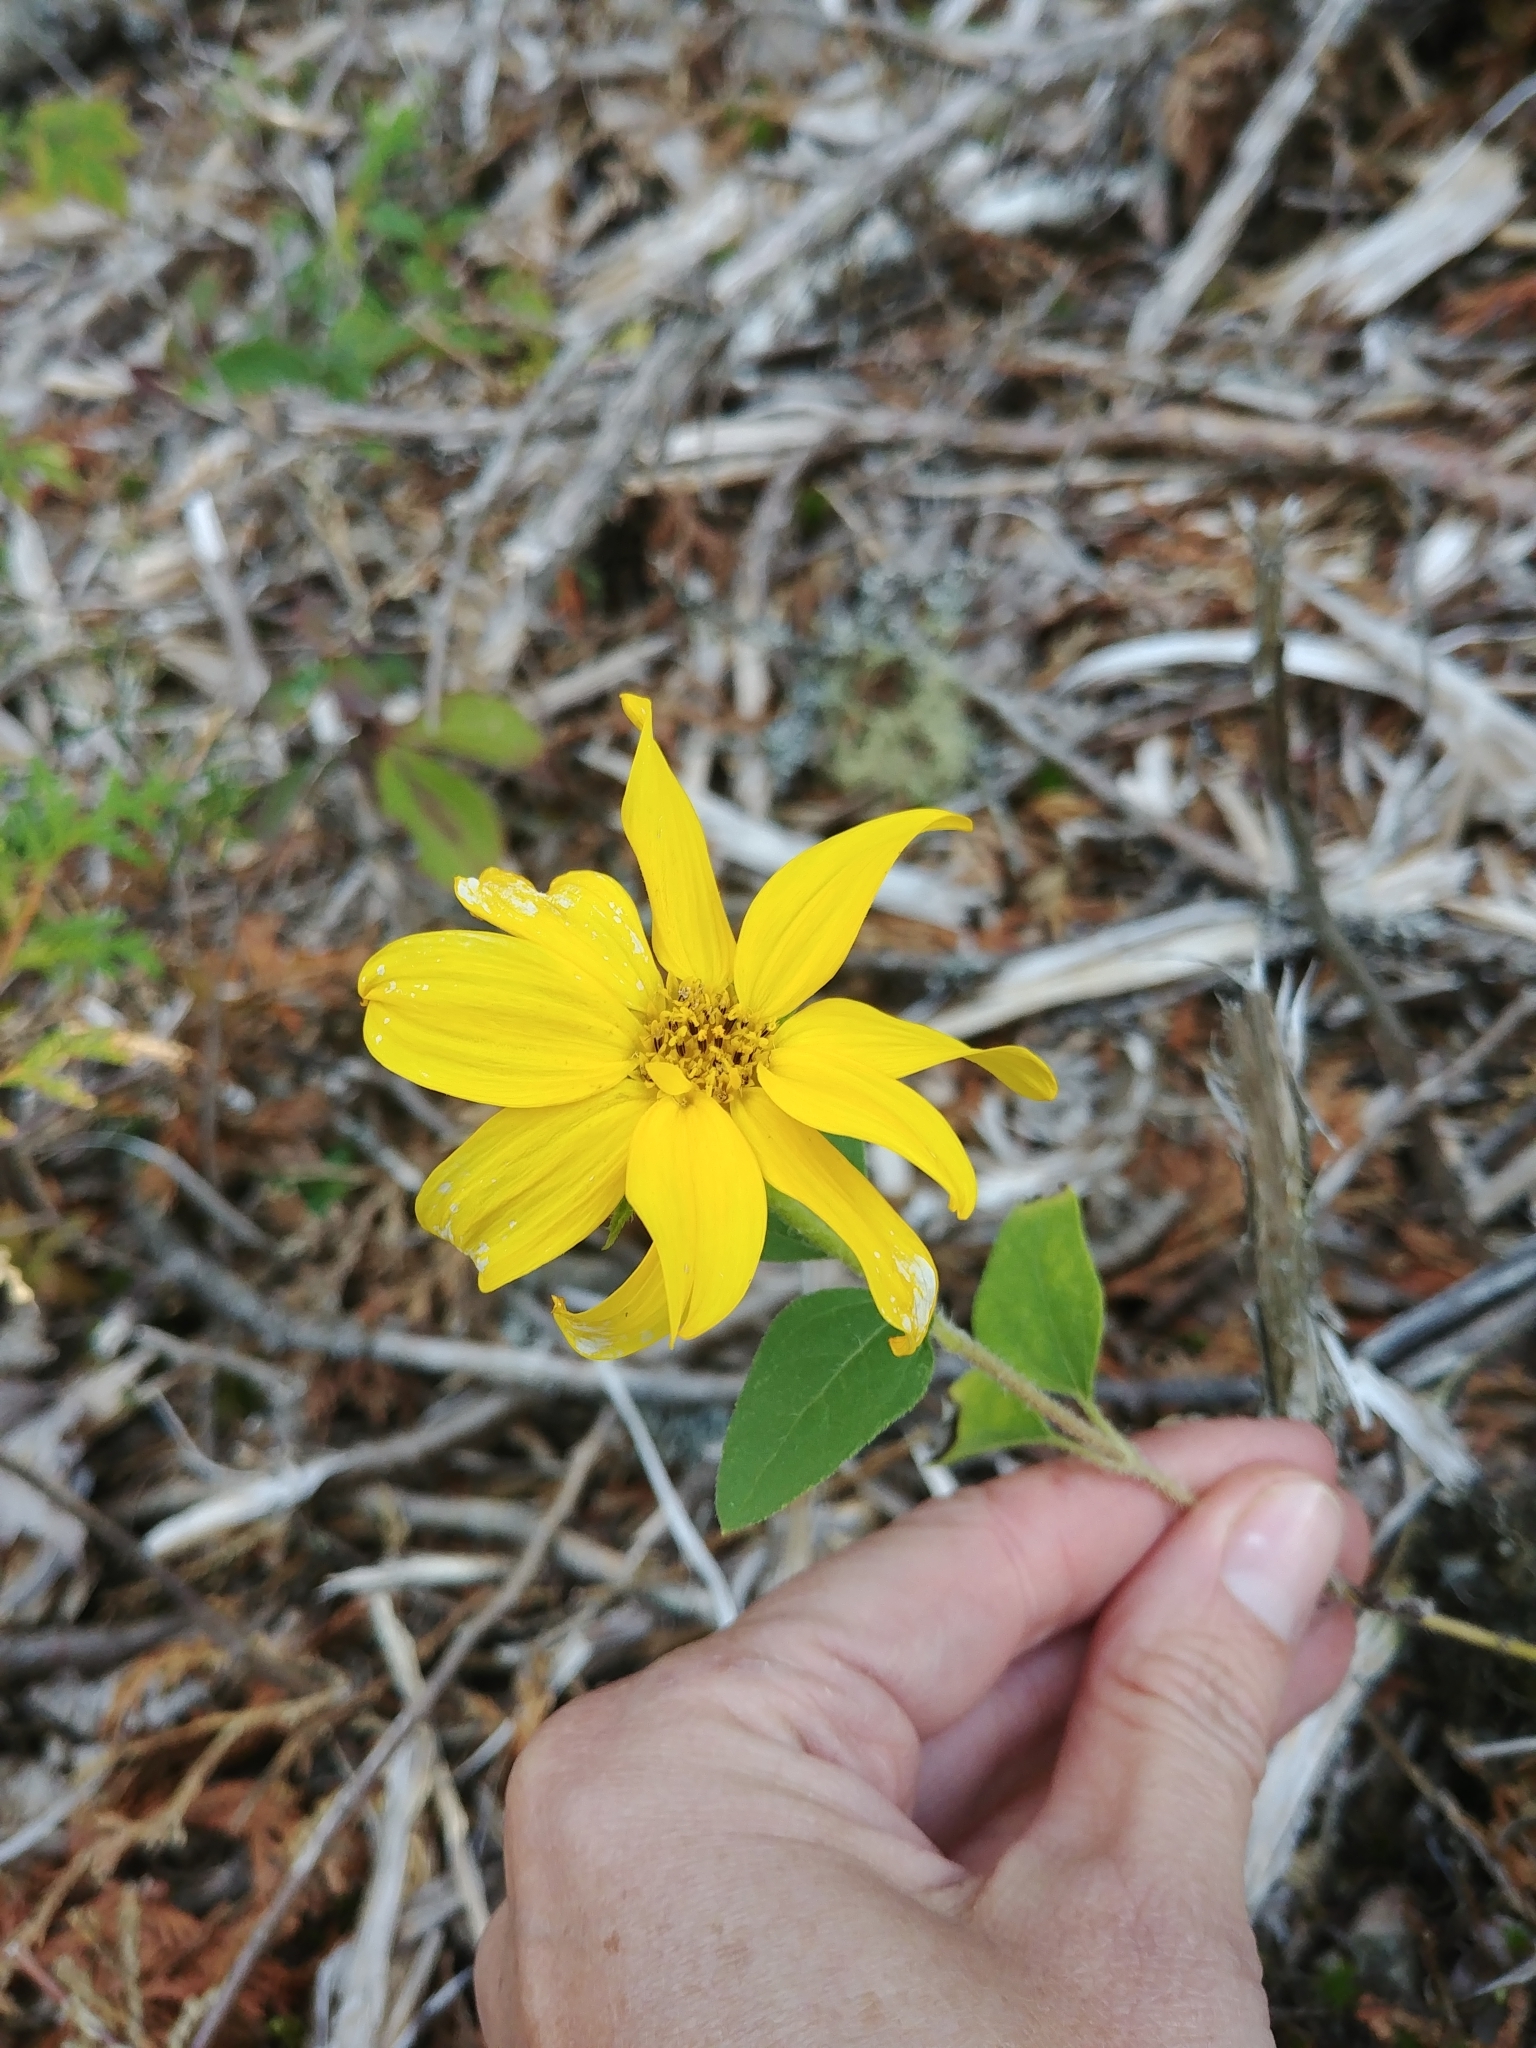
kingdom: Plantae
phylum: Tracheophyta
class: Magnoliopsida
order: Asterales
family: Asteraceae
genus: Helianthus
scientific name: Helianthus annuus
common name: Sunflower
